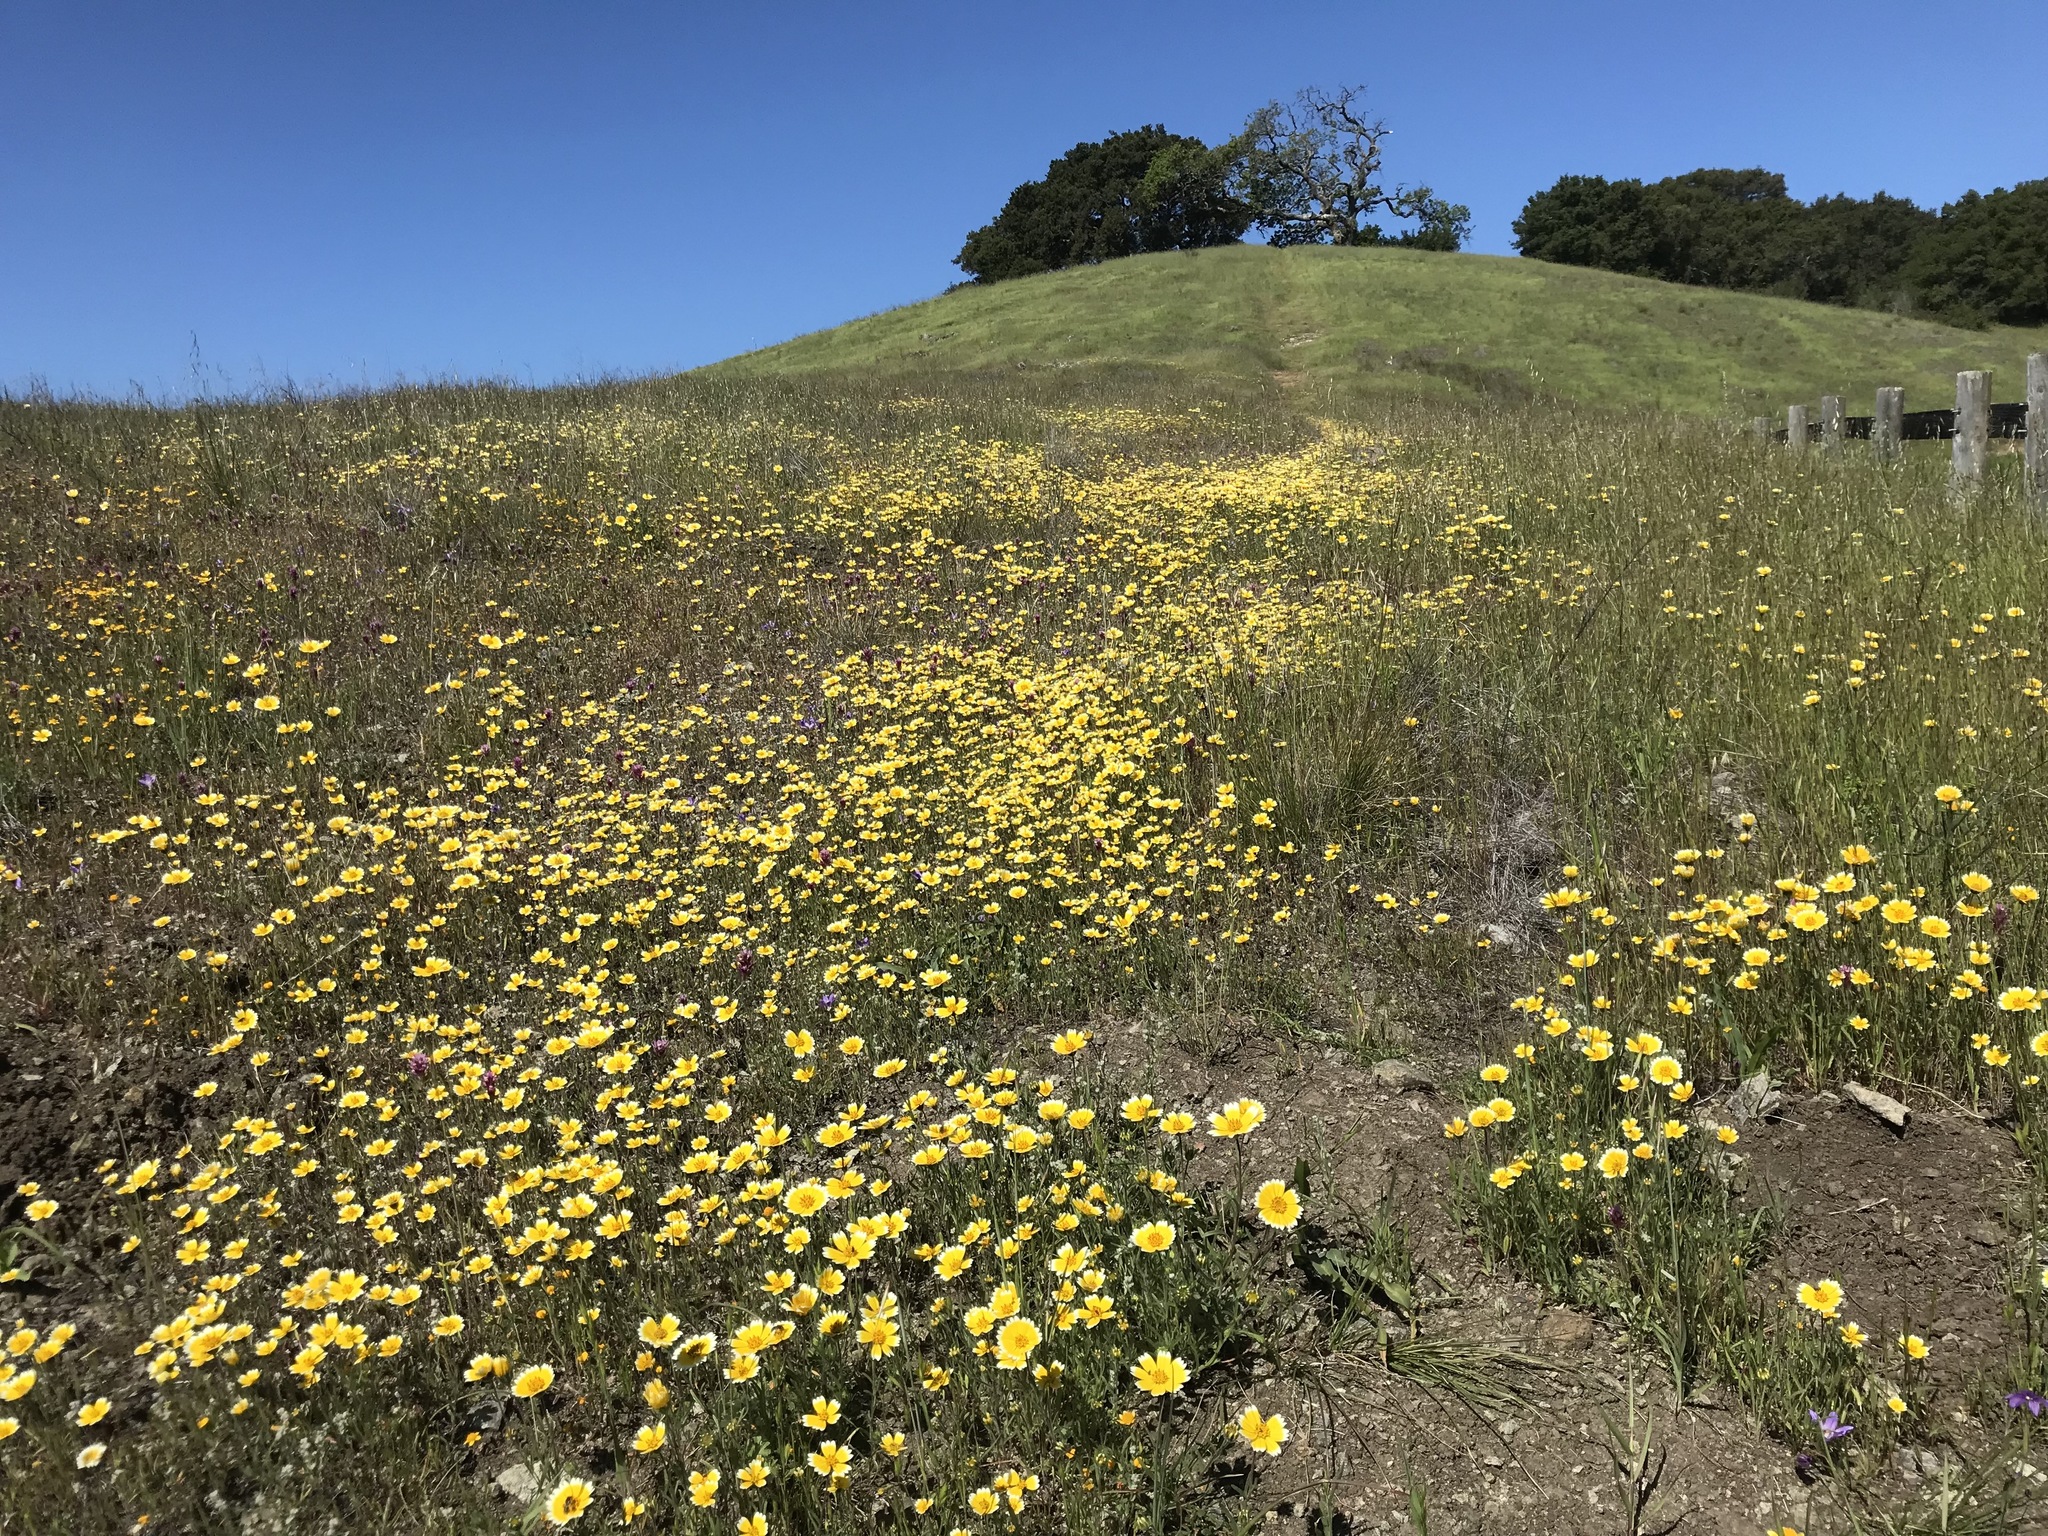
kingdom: Plantae
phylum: Tracheophyta
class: Magnoliopsida
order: Asterales
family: Asteraceae
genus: Layia
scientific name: Layia platyglossa
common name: Tidy-tips
